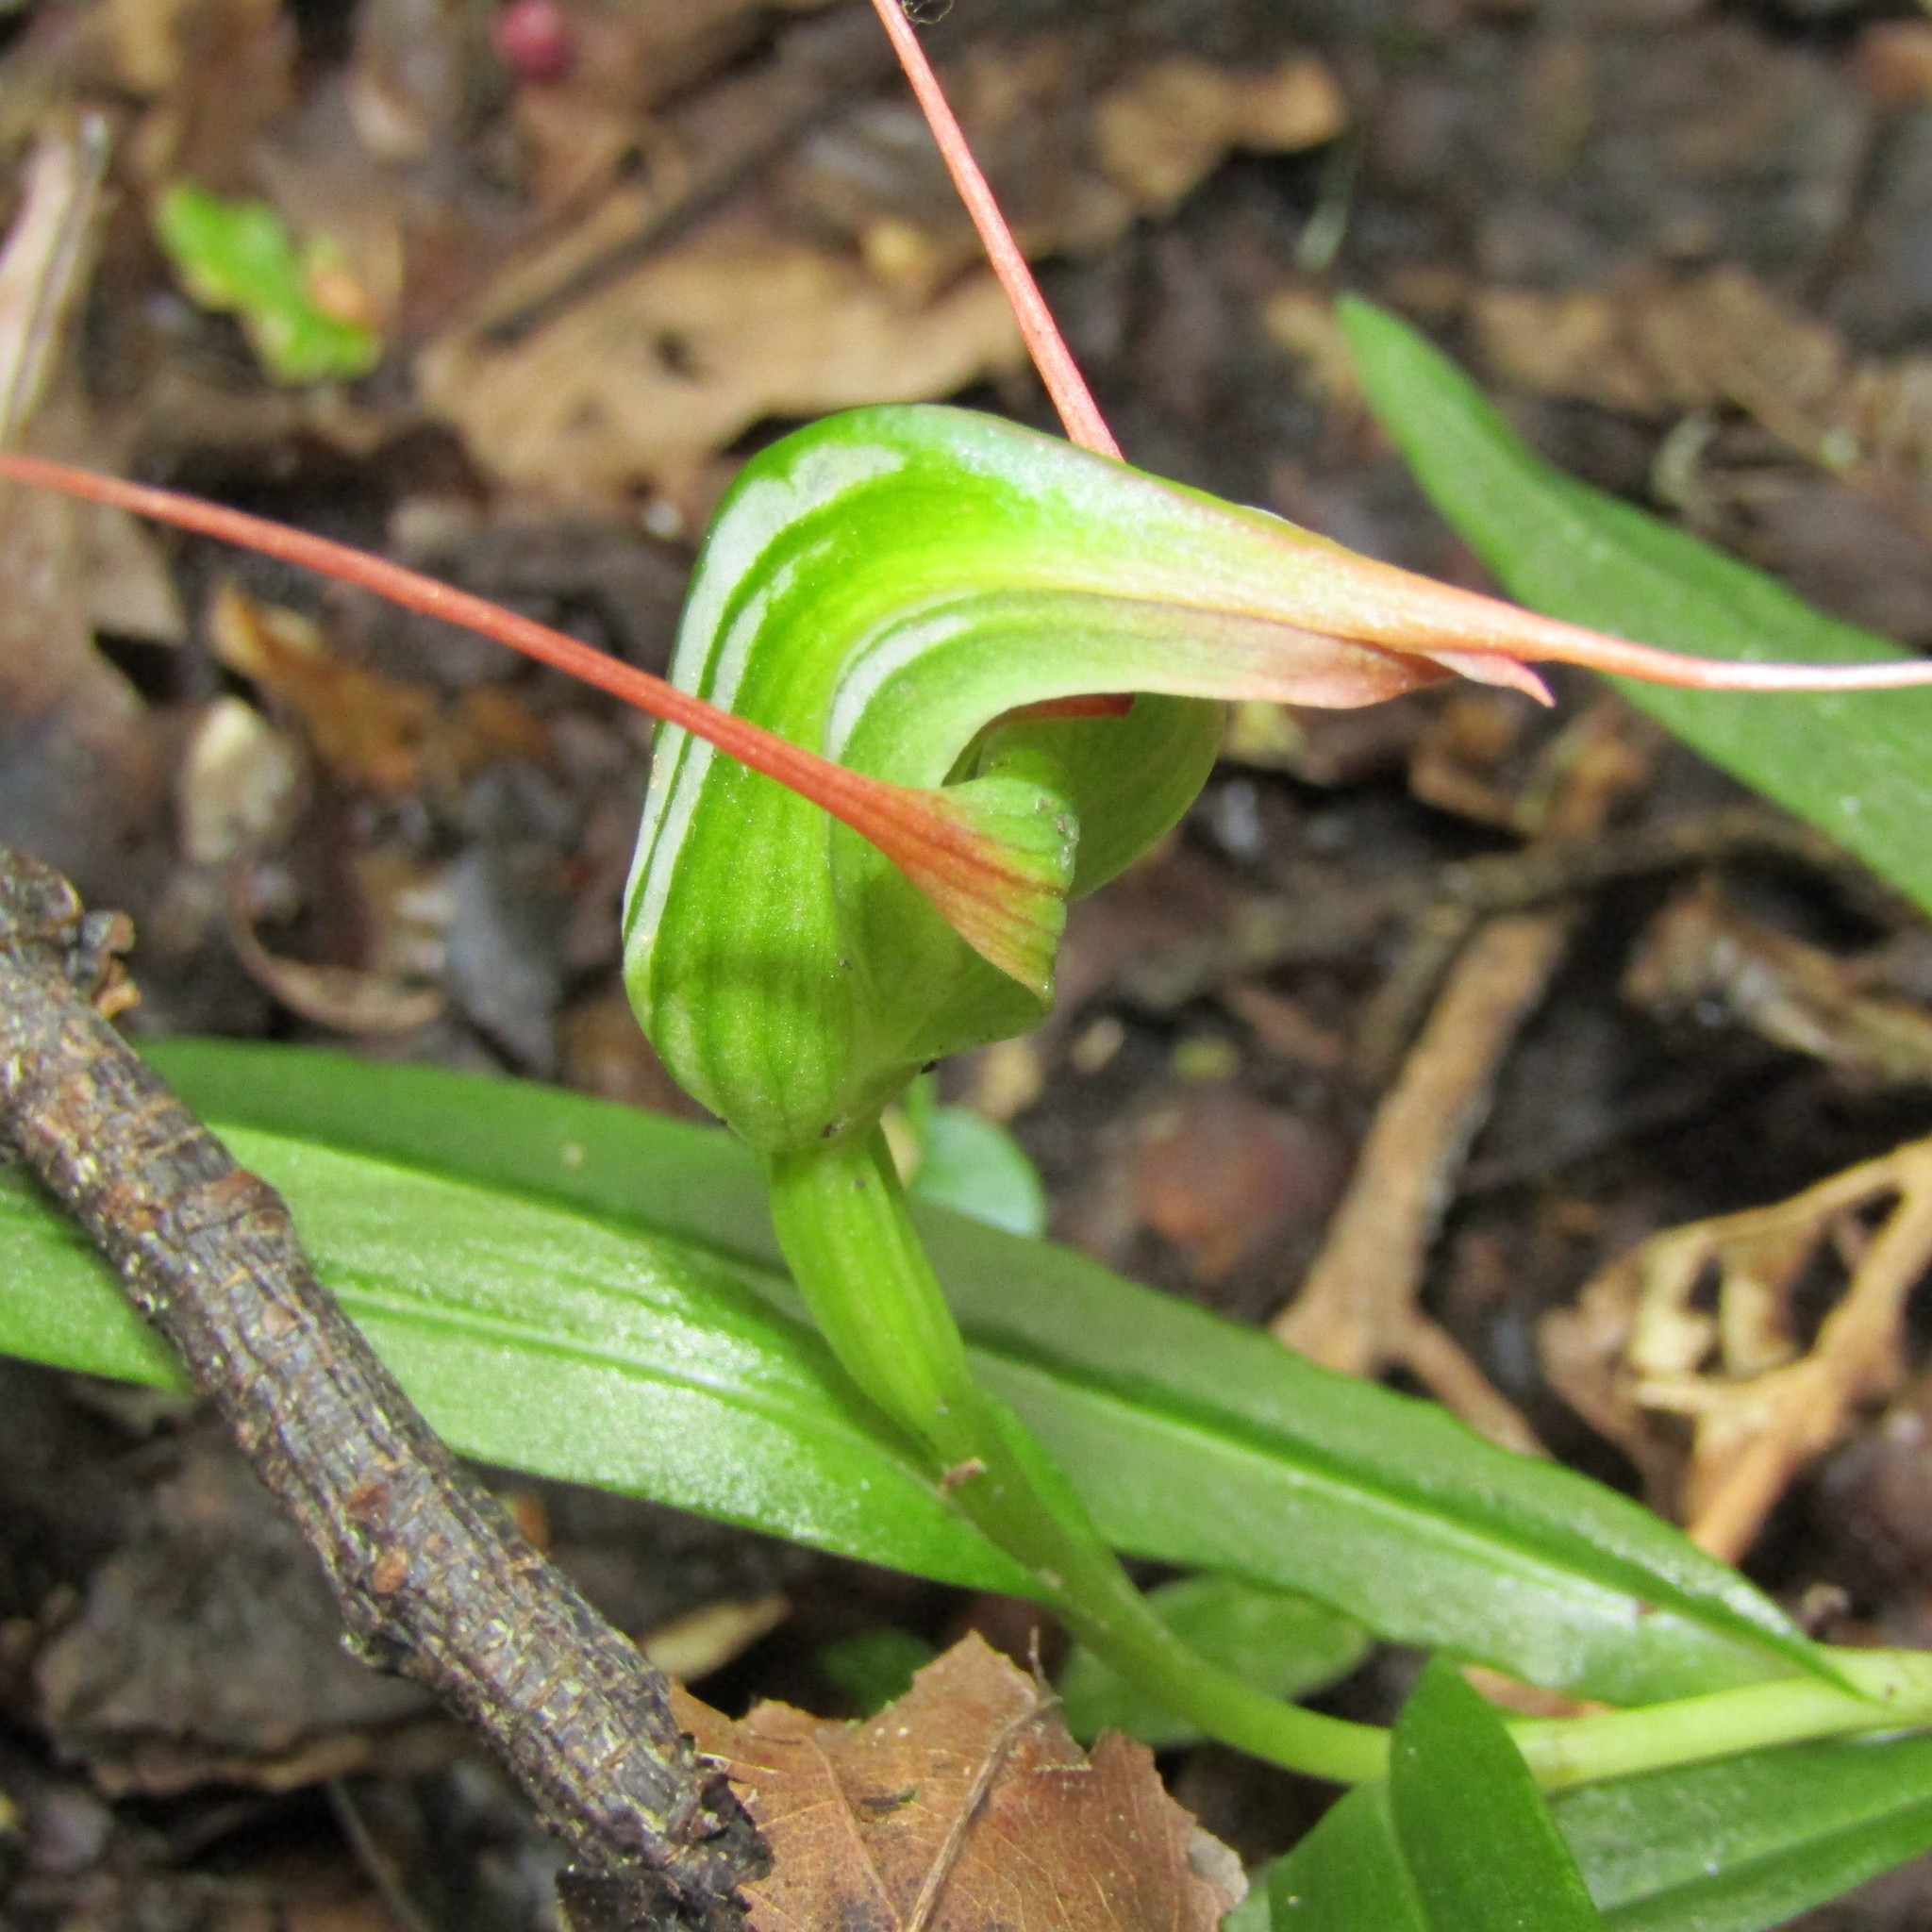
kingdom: Plantae
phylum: Tracheophyta
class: Liliopsida
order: Asparagales
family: Orchidaceae
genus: Pterostylis
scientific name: Pterostylis banksii
